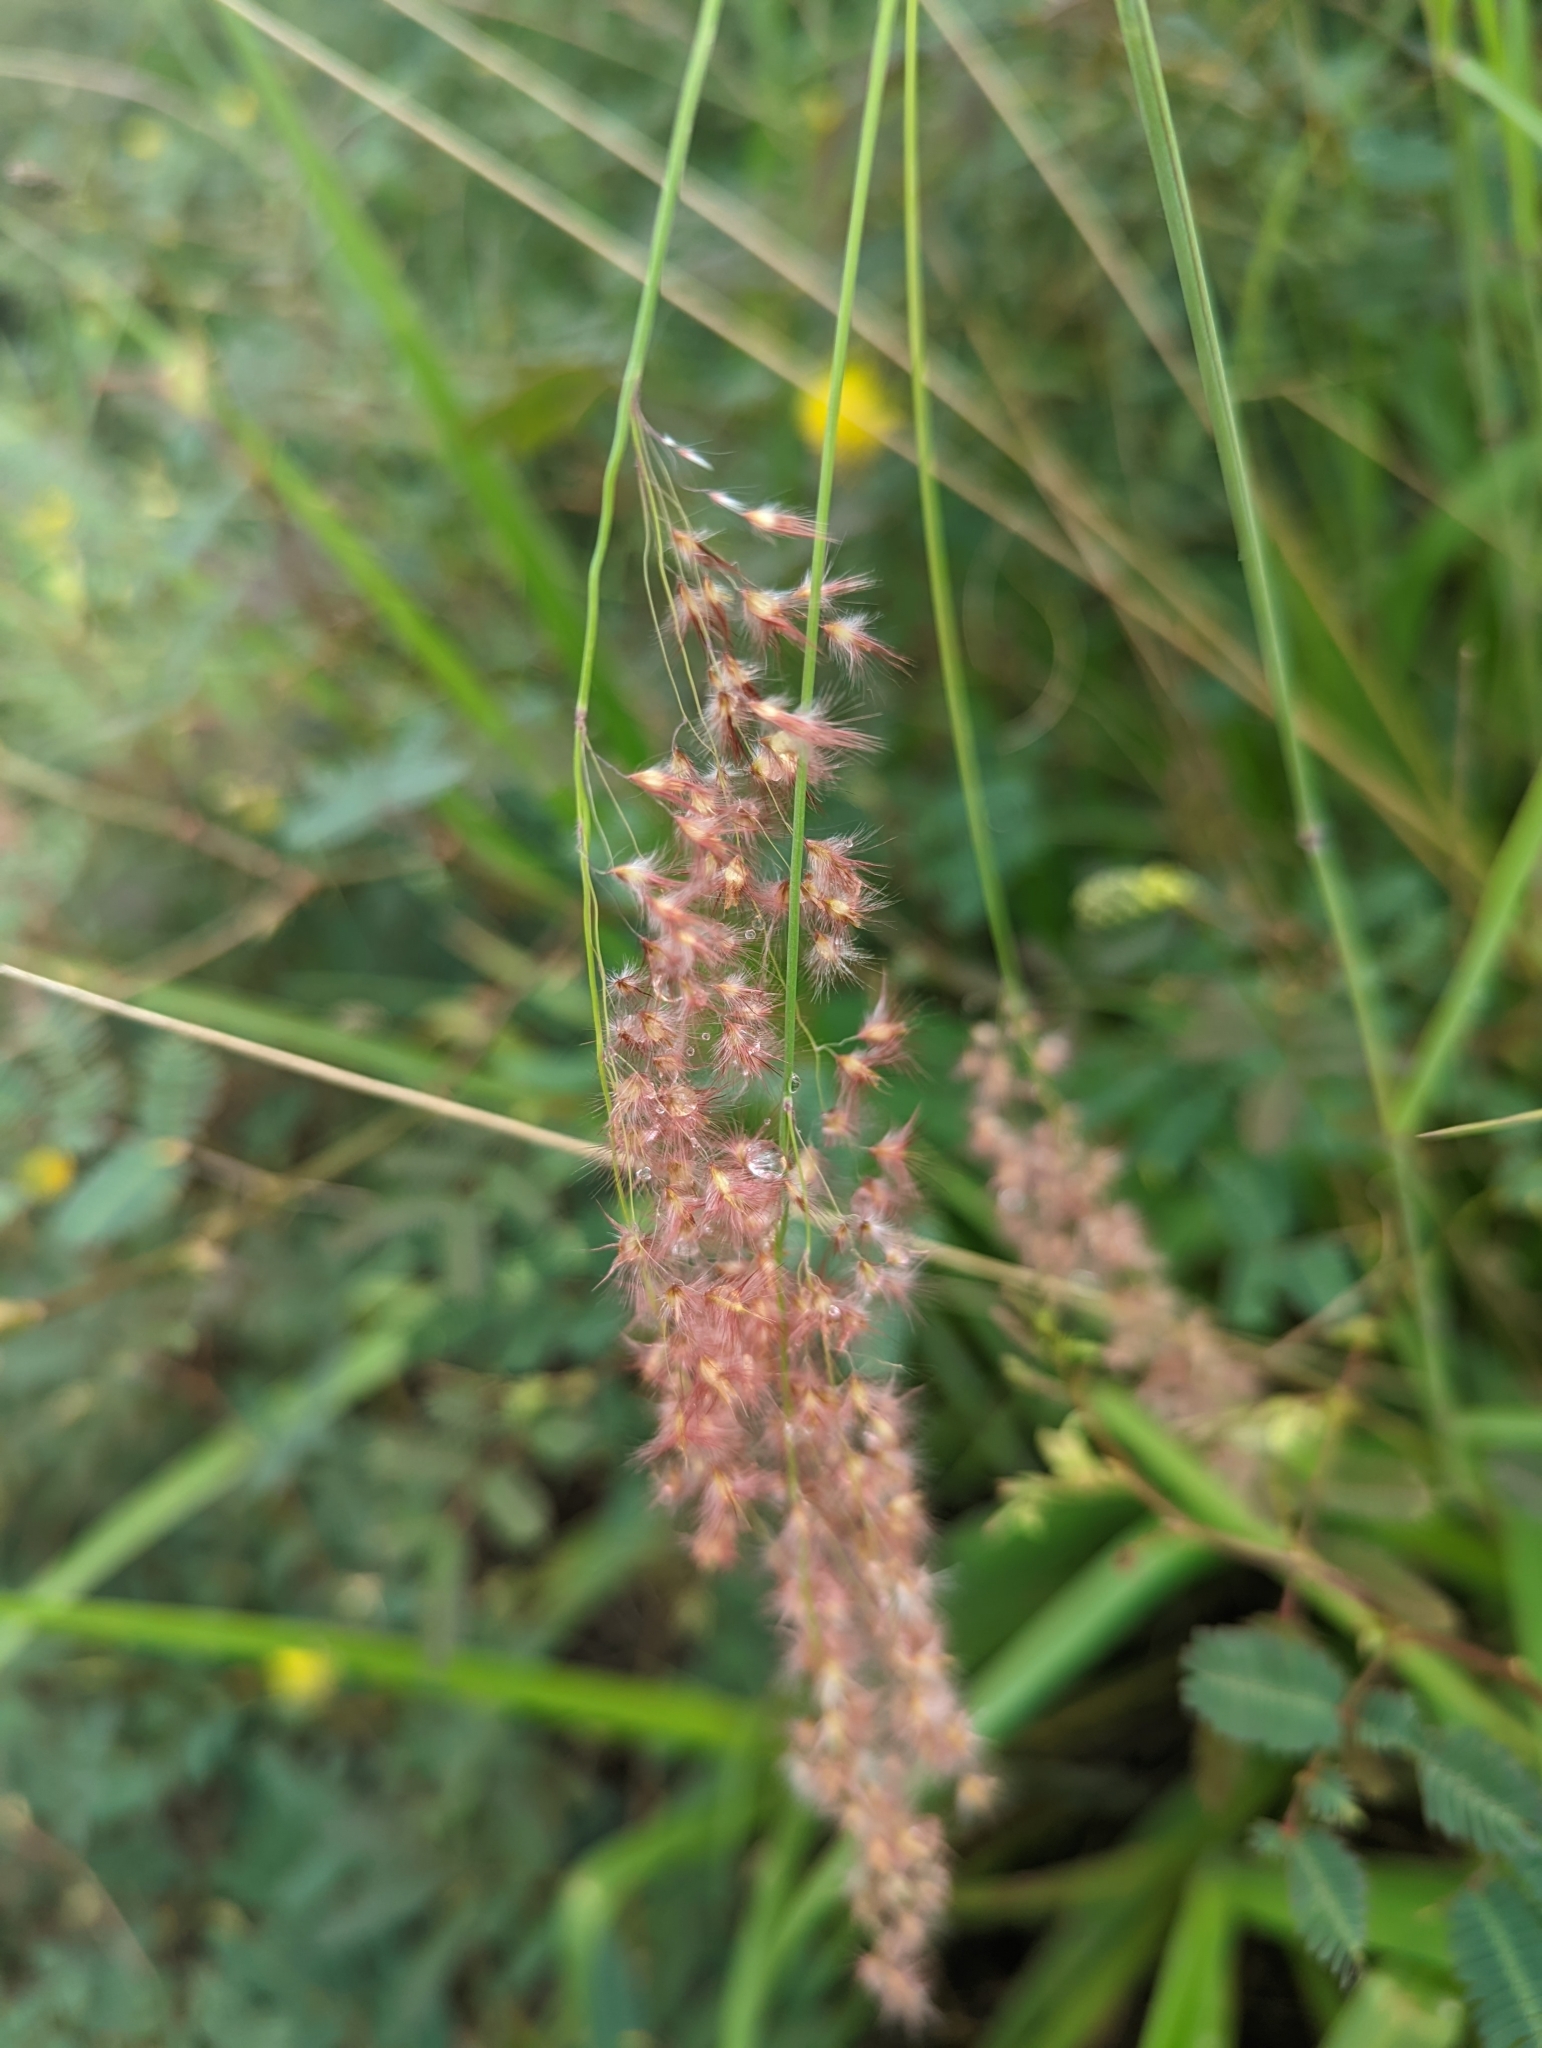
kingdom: Plantae
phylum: Tracheophyta
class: Liliopsida
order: Poales
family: Poaceae
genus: Melinis
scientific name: Melinis repens
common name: Rose natal grass
